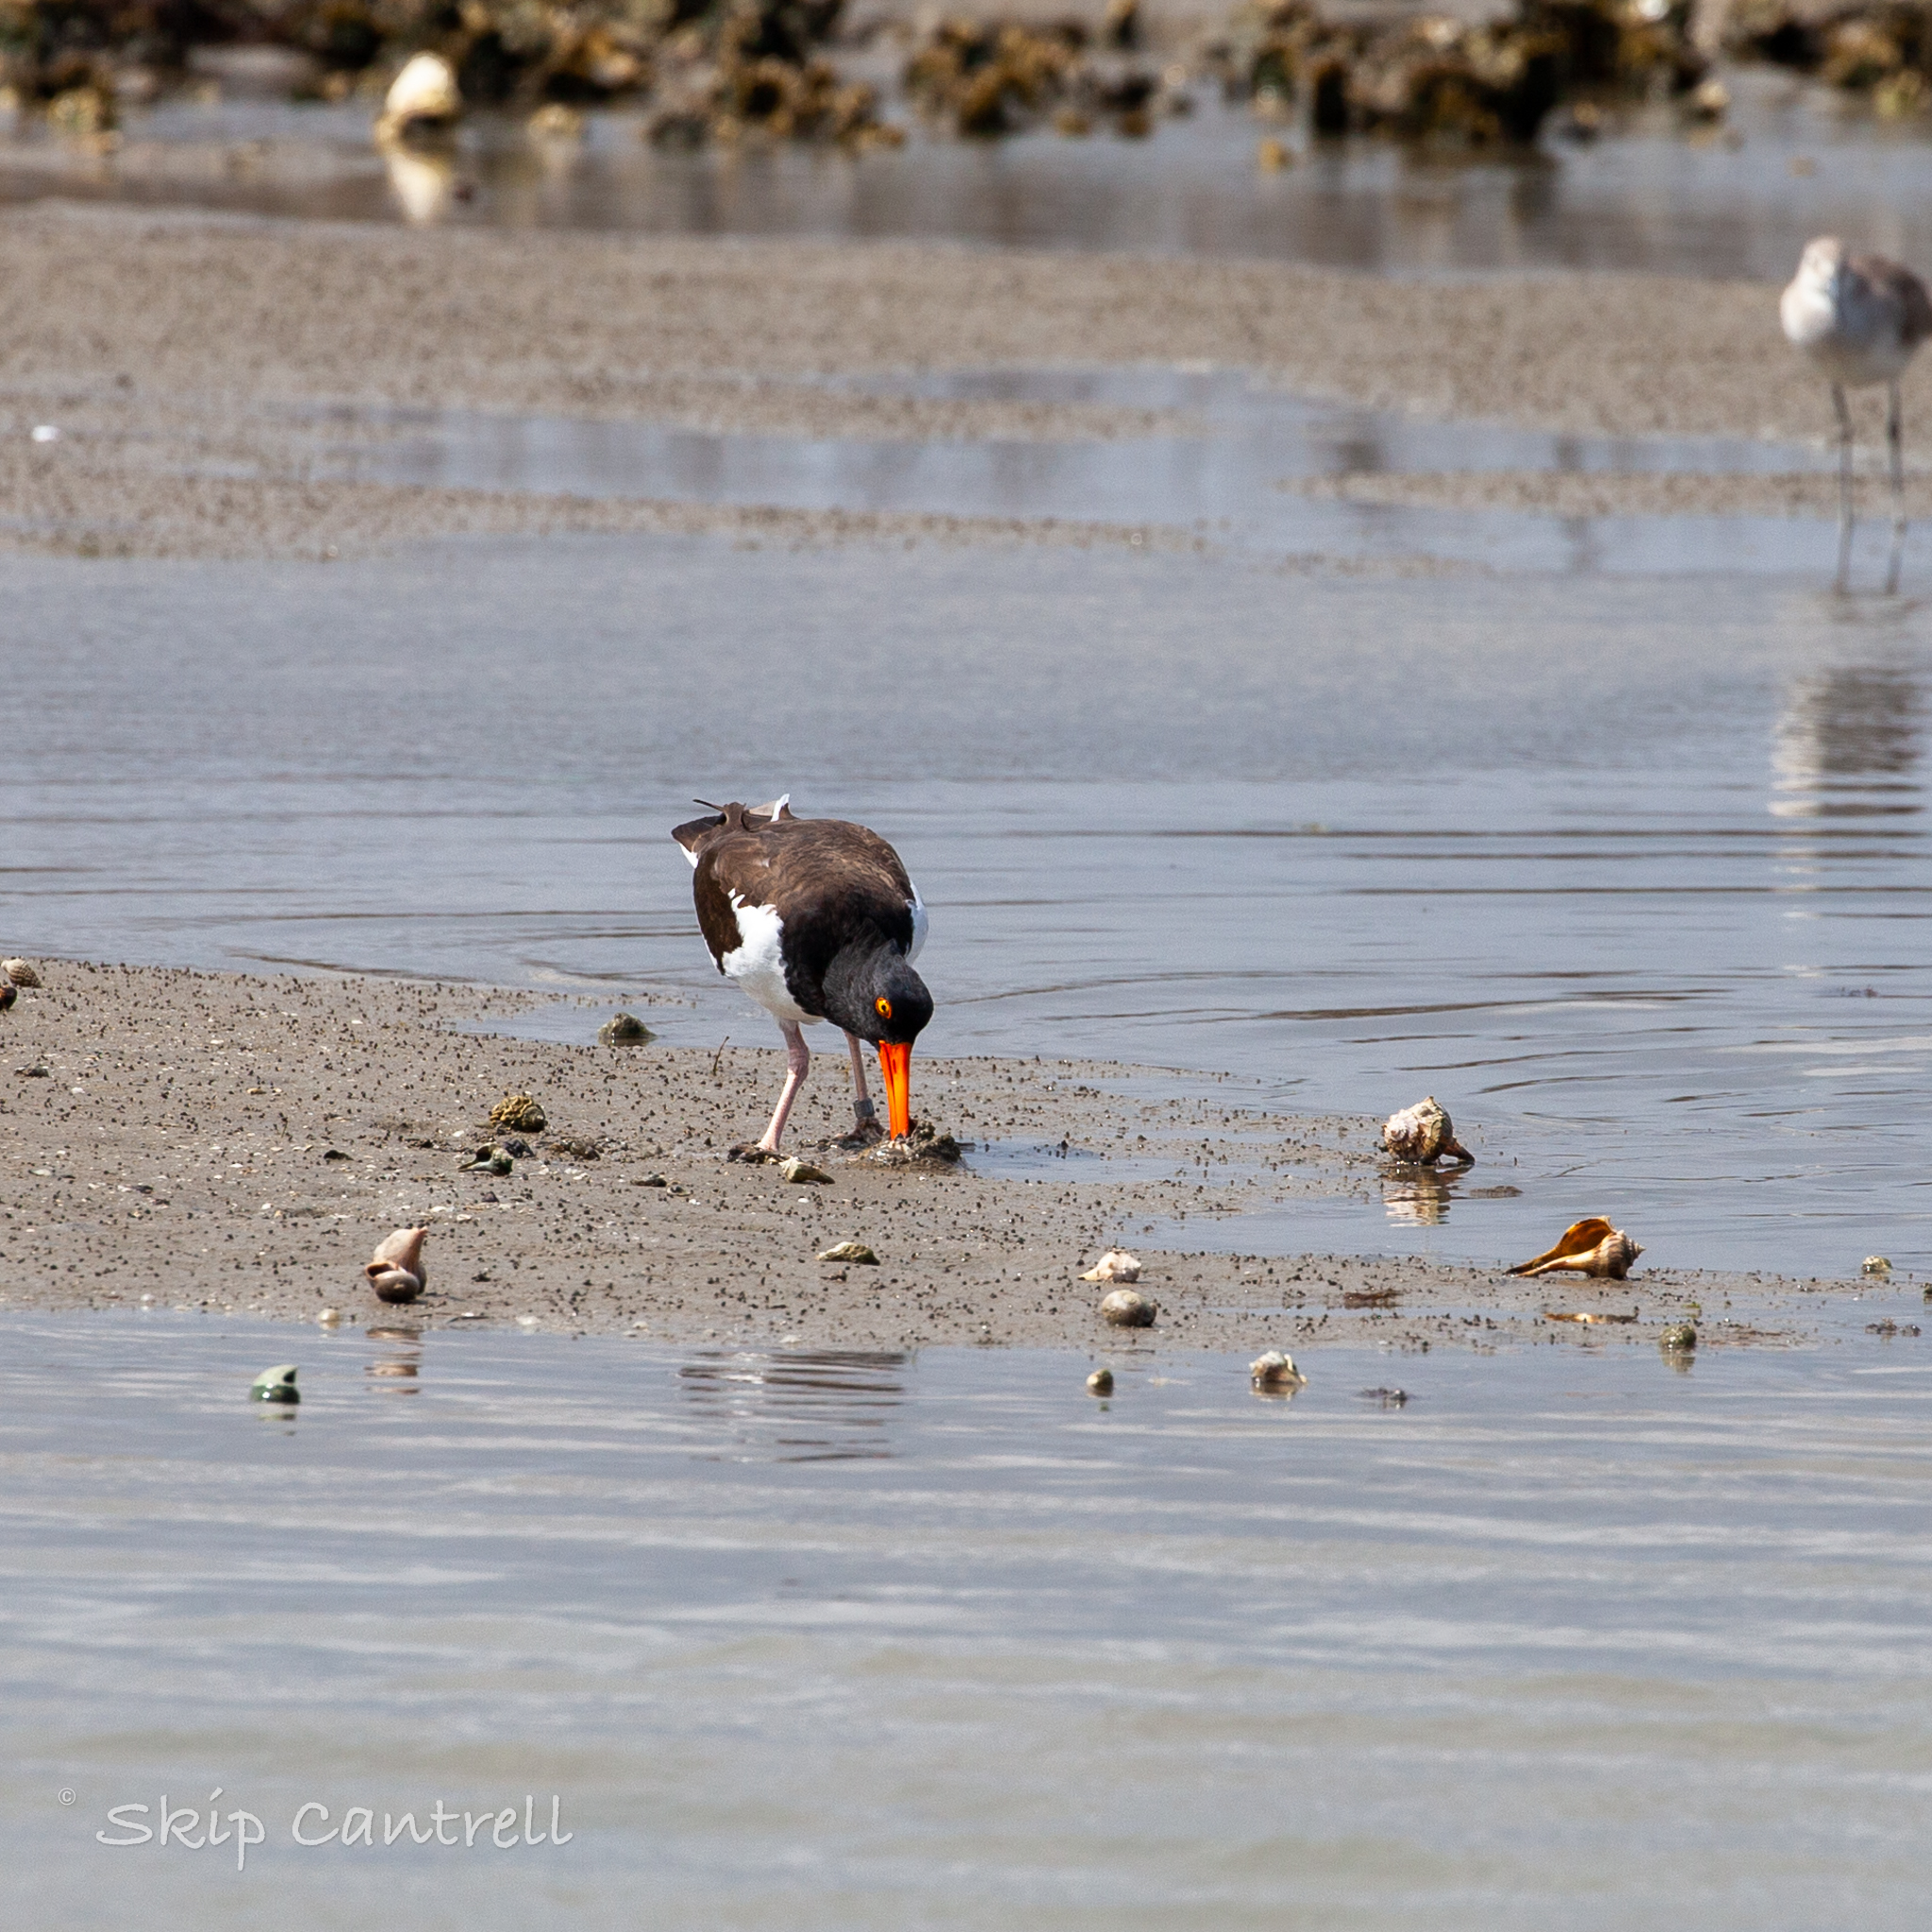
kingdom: Animalia
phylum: Chordata
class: Aves
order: Charadriiformes
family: Haematopodidae
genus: Haematopus
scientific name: Haematopus palliatus
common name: American oystercatcher
